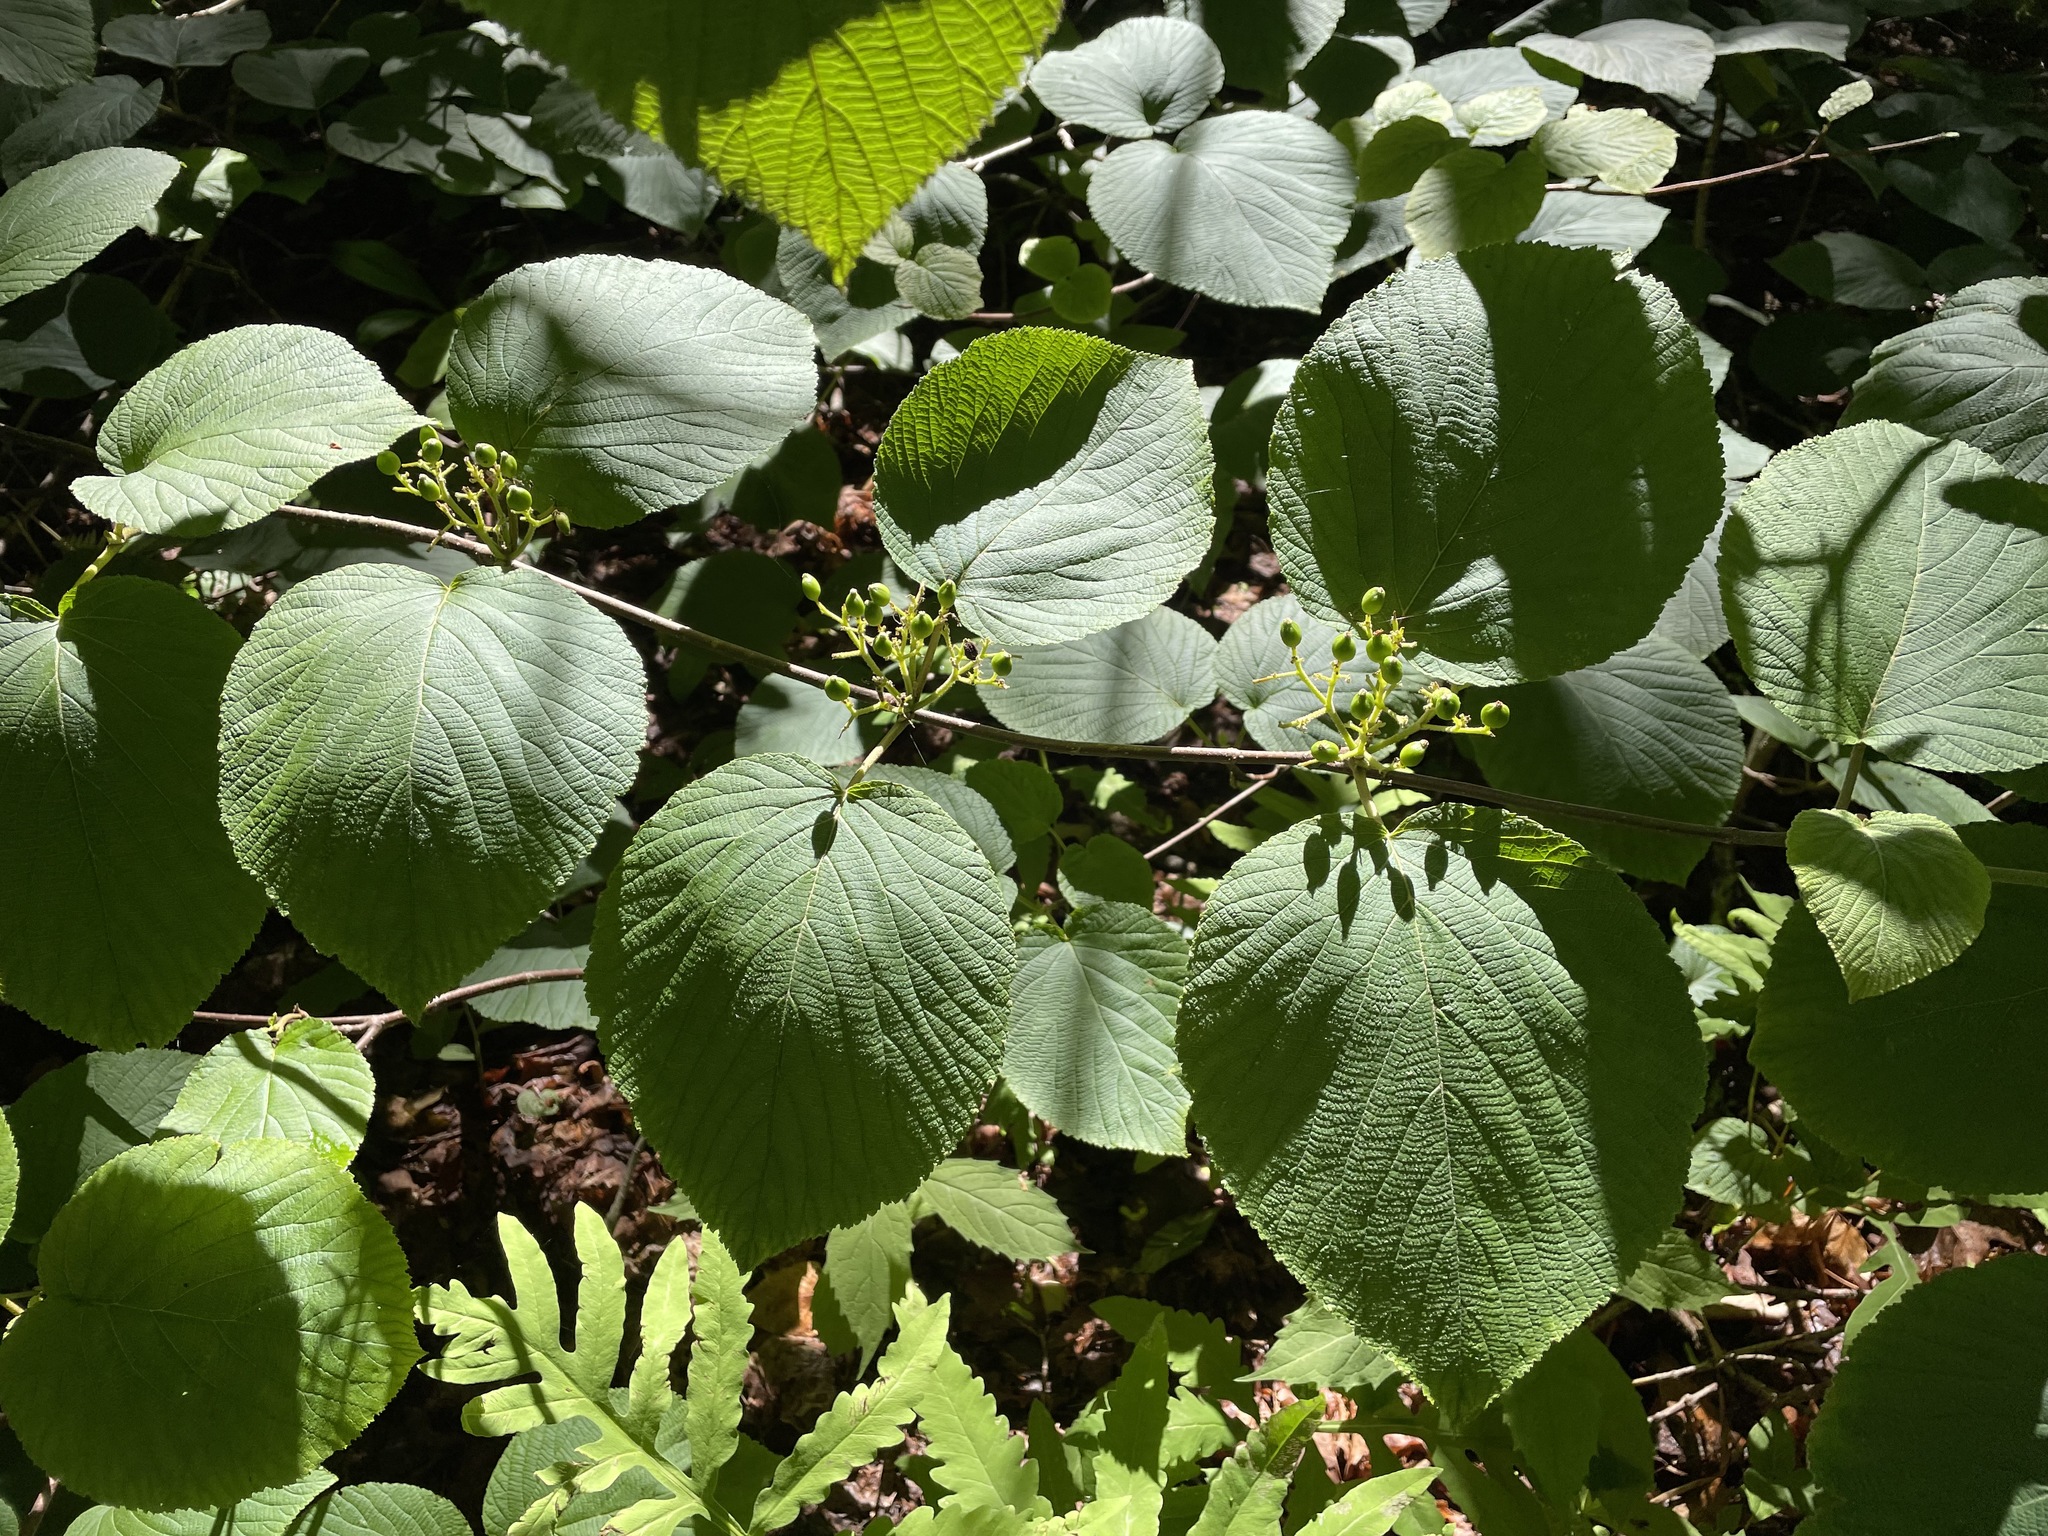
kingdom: Plantae
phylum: Tracheophyta
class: Magnoliopsida
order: Dipsacales
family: Viburnaceae
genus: Viburnum
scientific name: Viburnum lantanoides
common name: Hobblebush
